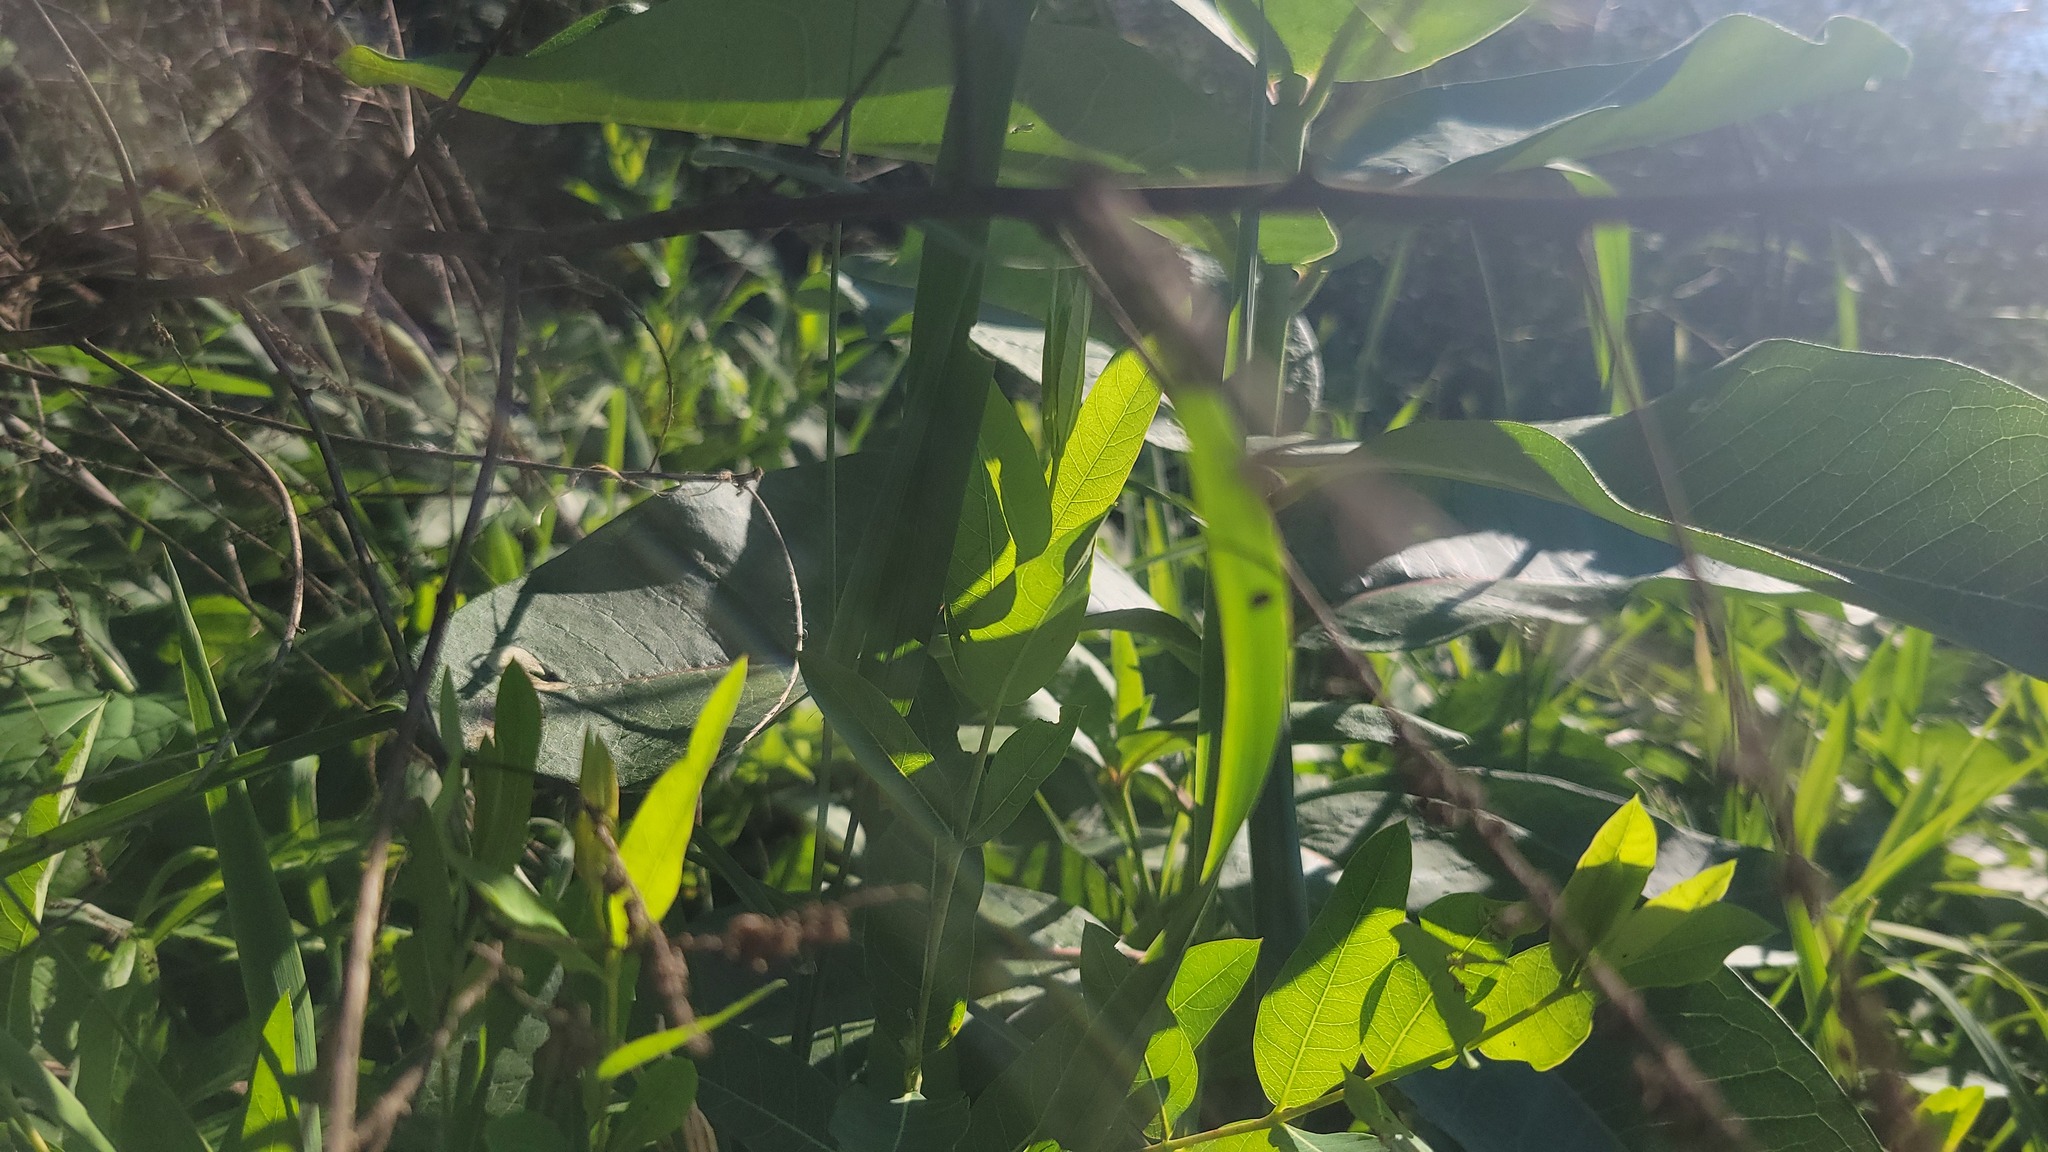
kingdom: Plantae
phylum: Tracheophyta
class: Magnoliopsida
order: Gentianales
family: Apocynaceae
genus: Asclepias
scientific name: Asclepias syriaca
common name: Common milkweed
